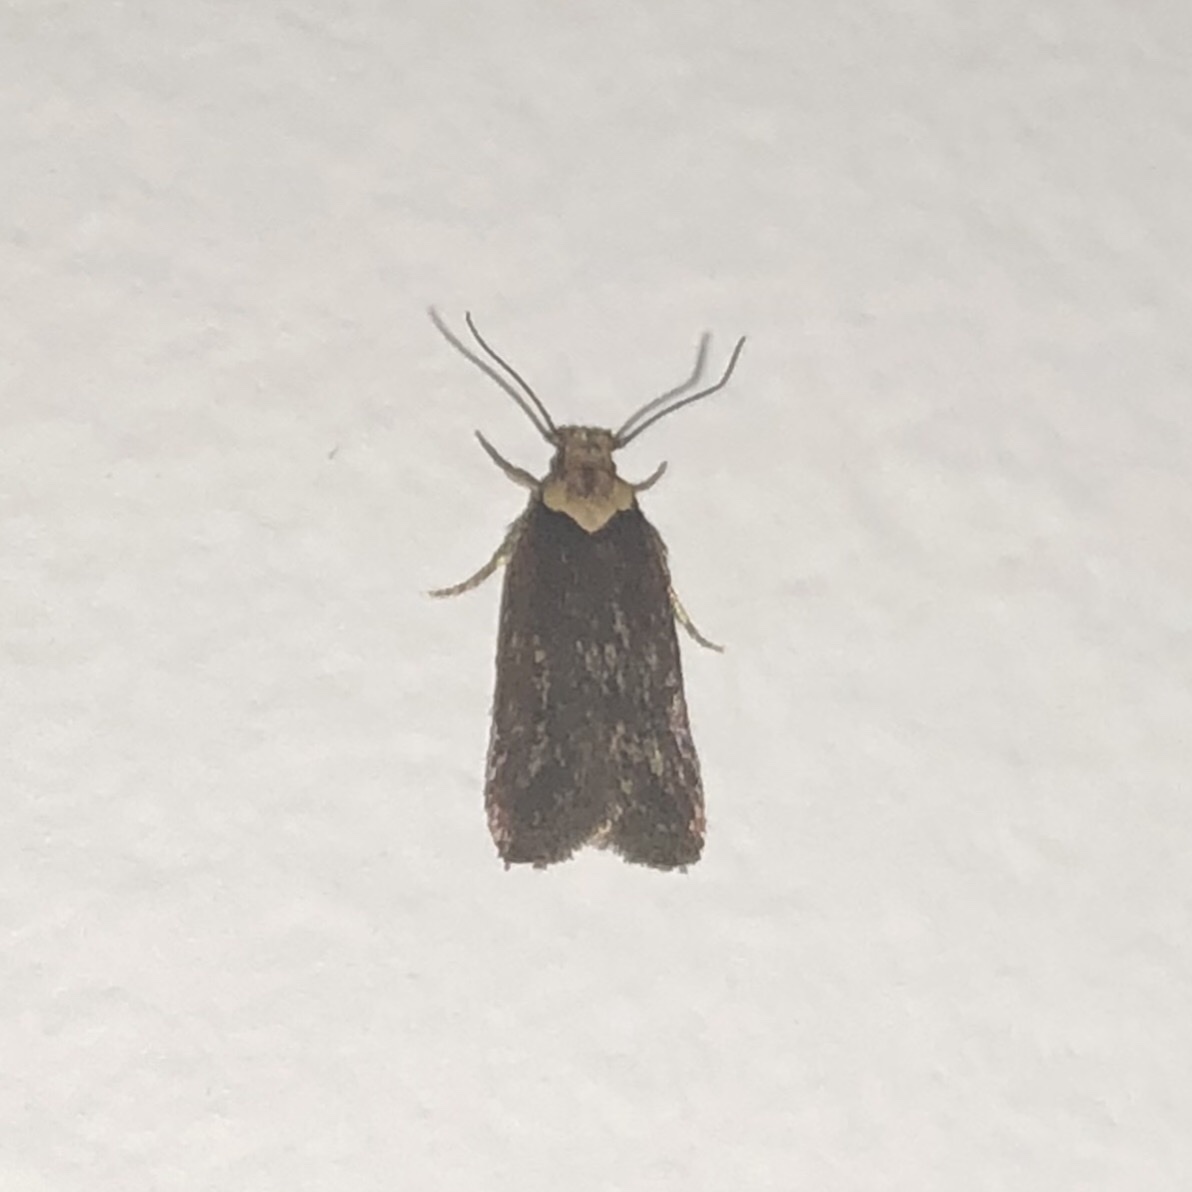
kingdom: Animalia
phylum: Arthropoda
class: Insecta
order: Lepidoptera
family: Depressariidae
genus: Depressaria
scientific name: Depressaria depressana
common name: Lost flat-body
